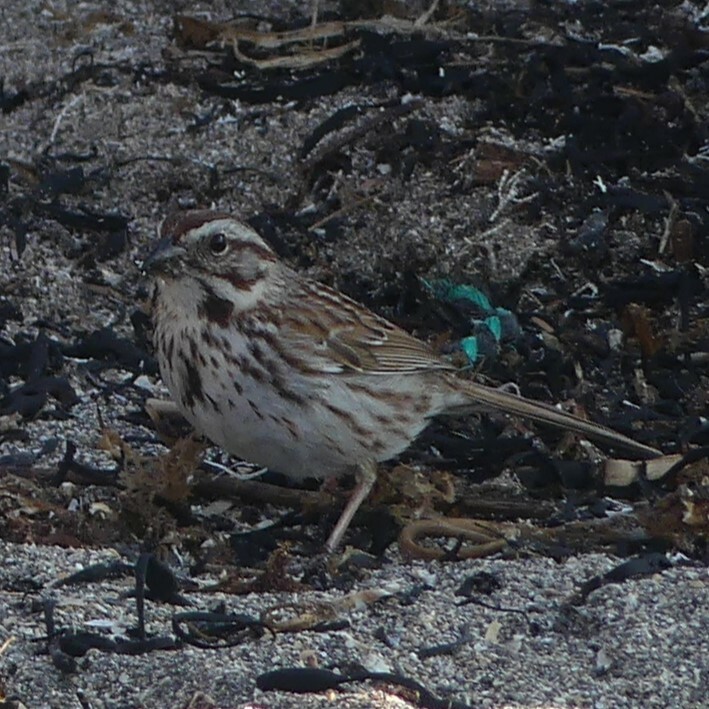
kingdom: Animalia
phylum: Chordata
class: Aves
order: Passeriformes
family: Passerellidae
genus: Melospiza
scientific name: Melospiza melodia
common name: Song sparrow
